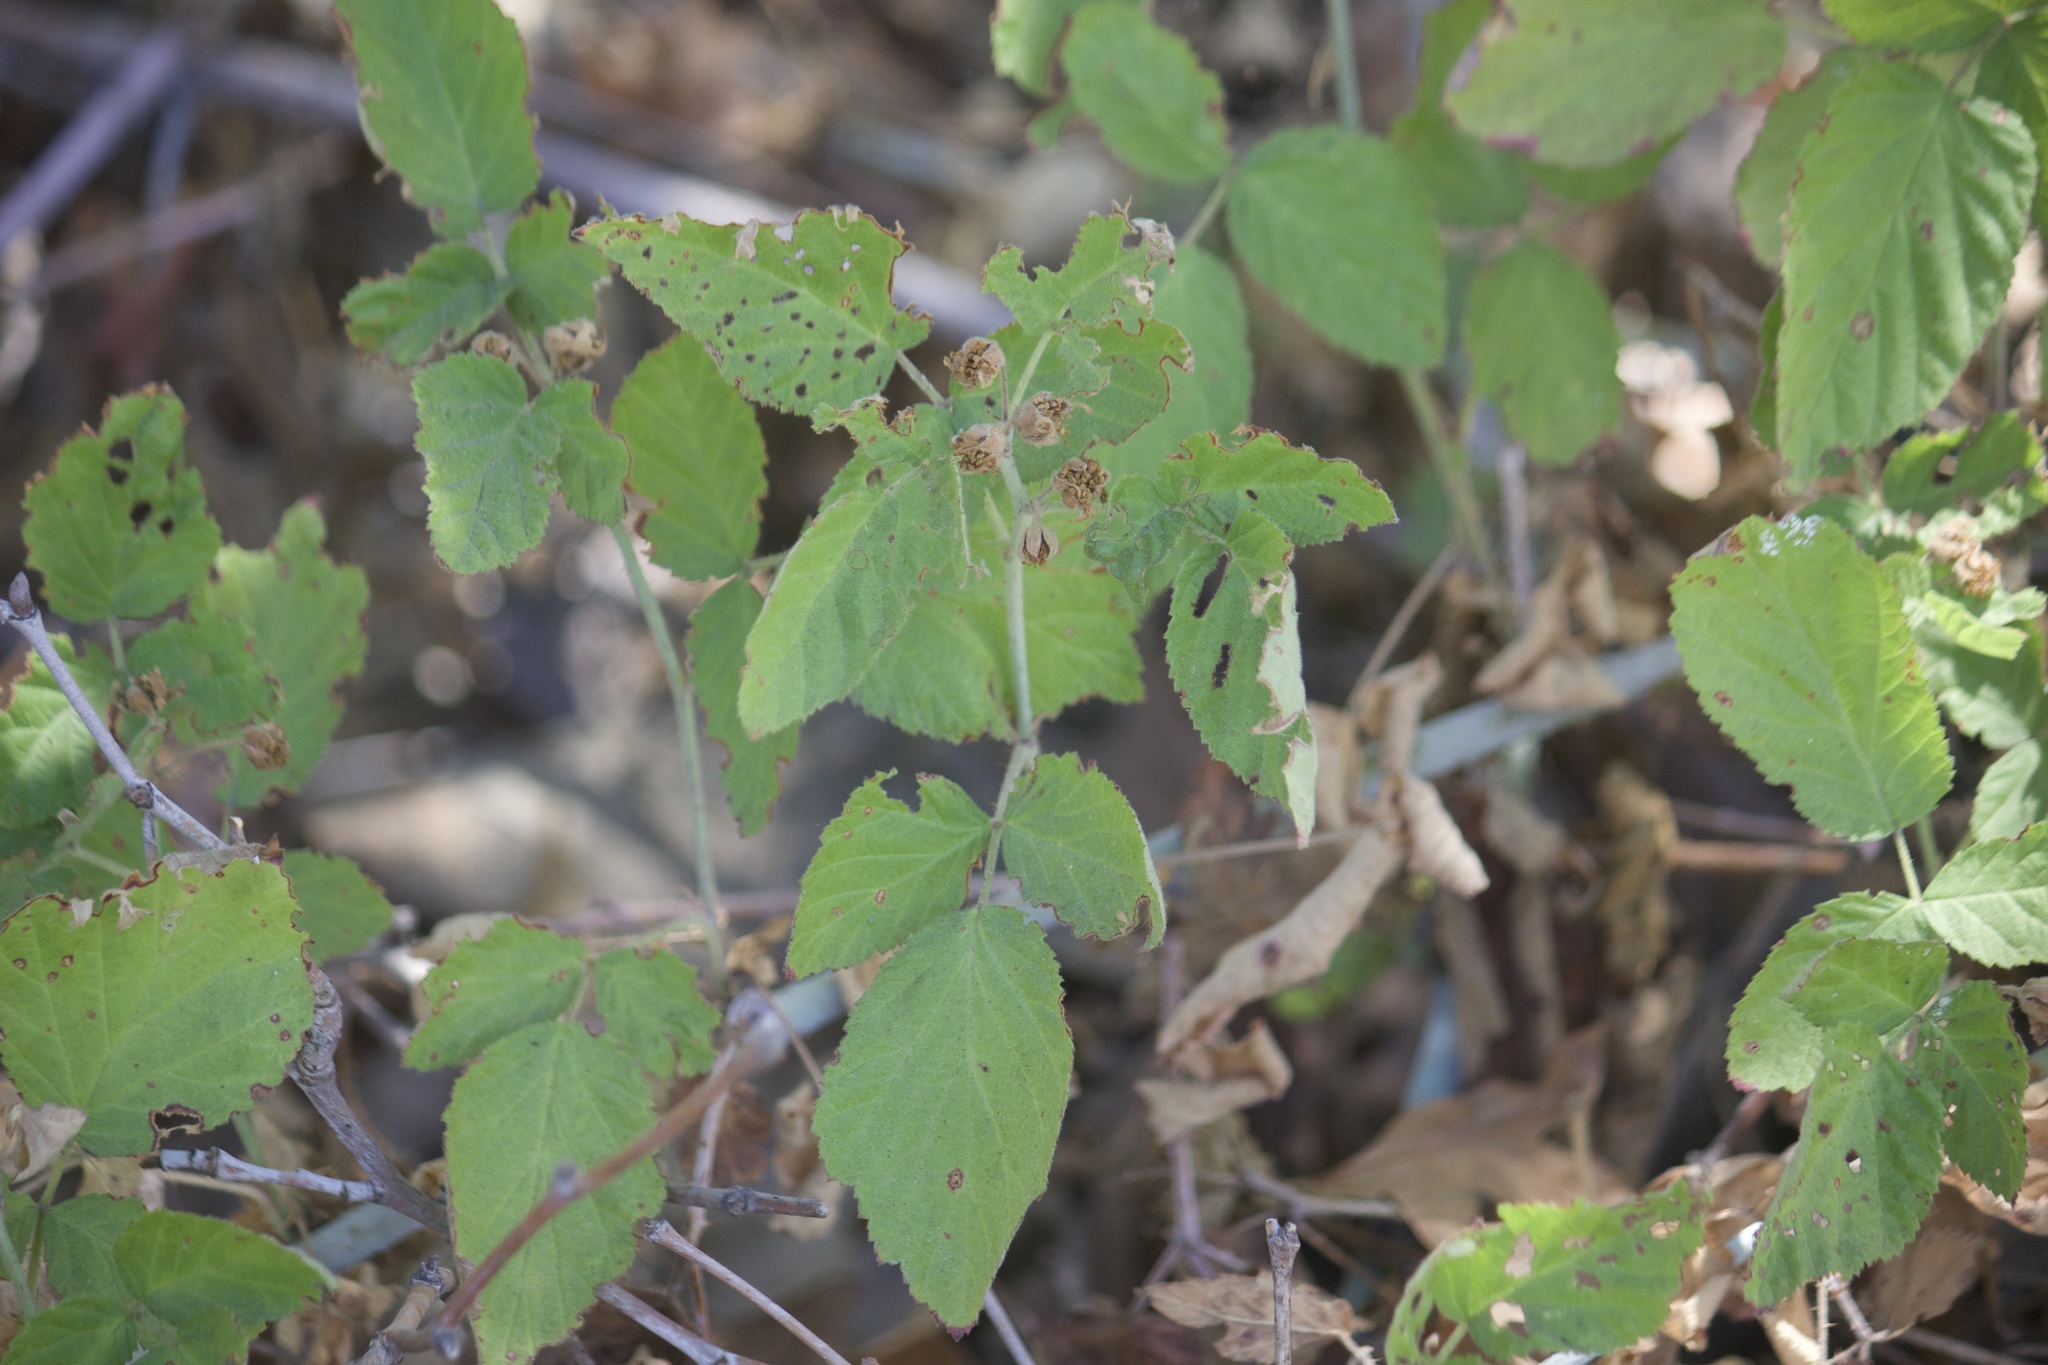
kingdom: Plantae
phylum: Tracheophyta
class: Magnoliopsida
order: Rosales
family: Rosaceae
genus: Rubus
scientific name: Rubus ursinus
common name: Pacific blackberry
